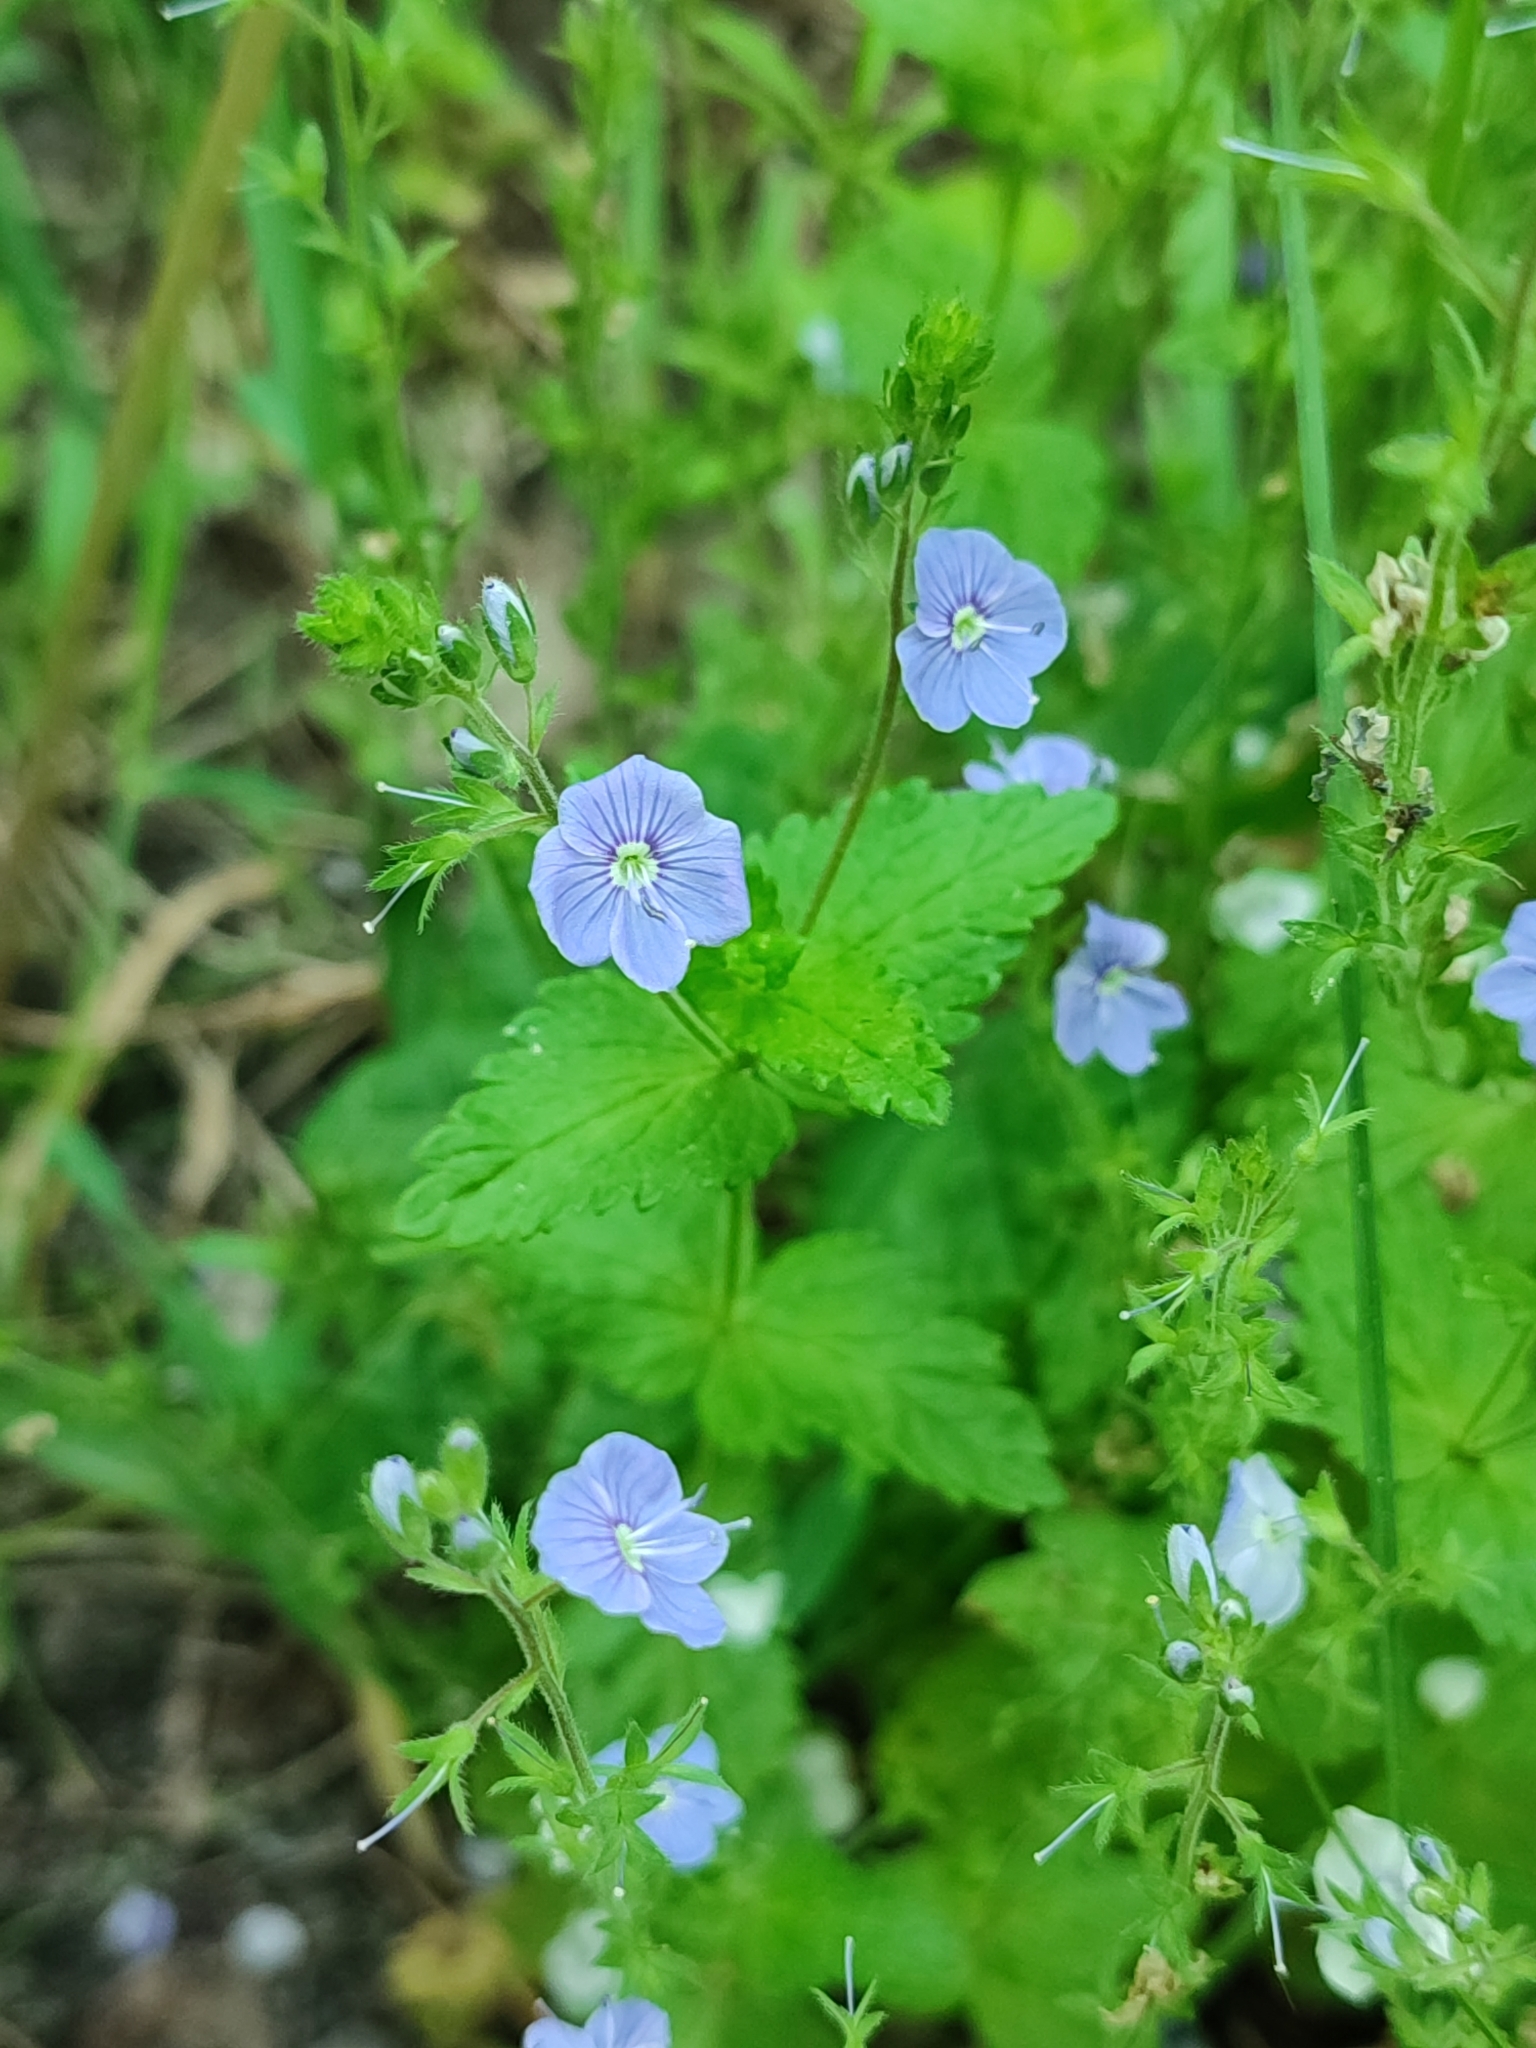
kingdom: Plantae
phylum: Tracheophyta
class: Magnoliopsida
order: Lamiales
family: Plantaginaceae
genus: Veronica
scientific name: Veronica chamaedrys
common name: Germander speedwell
